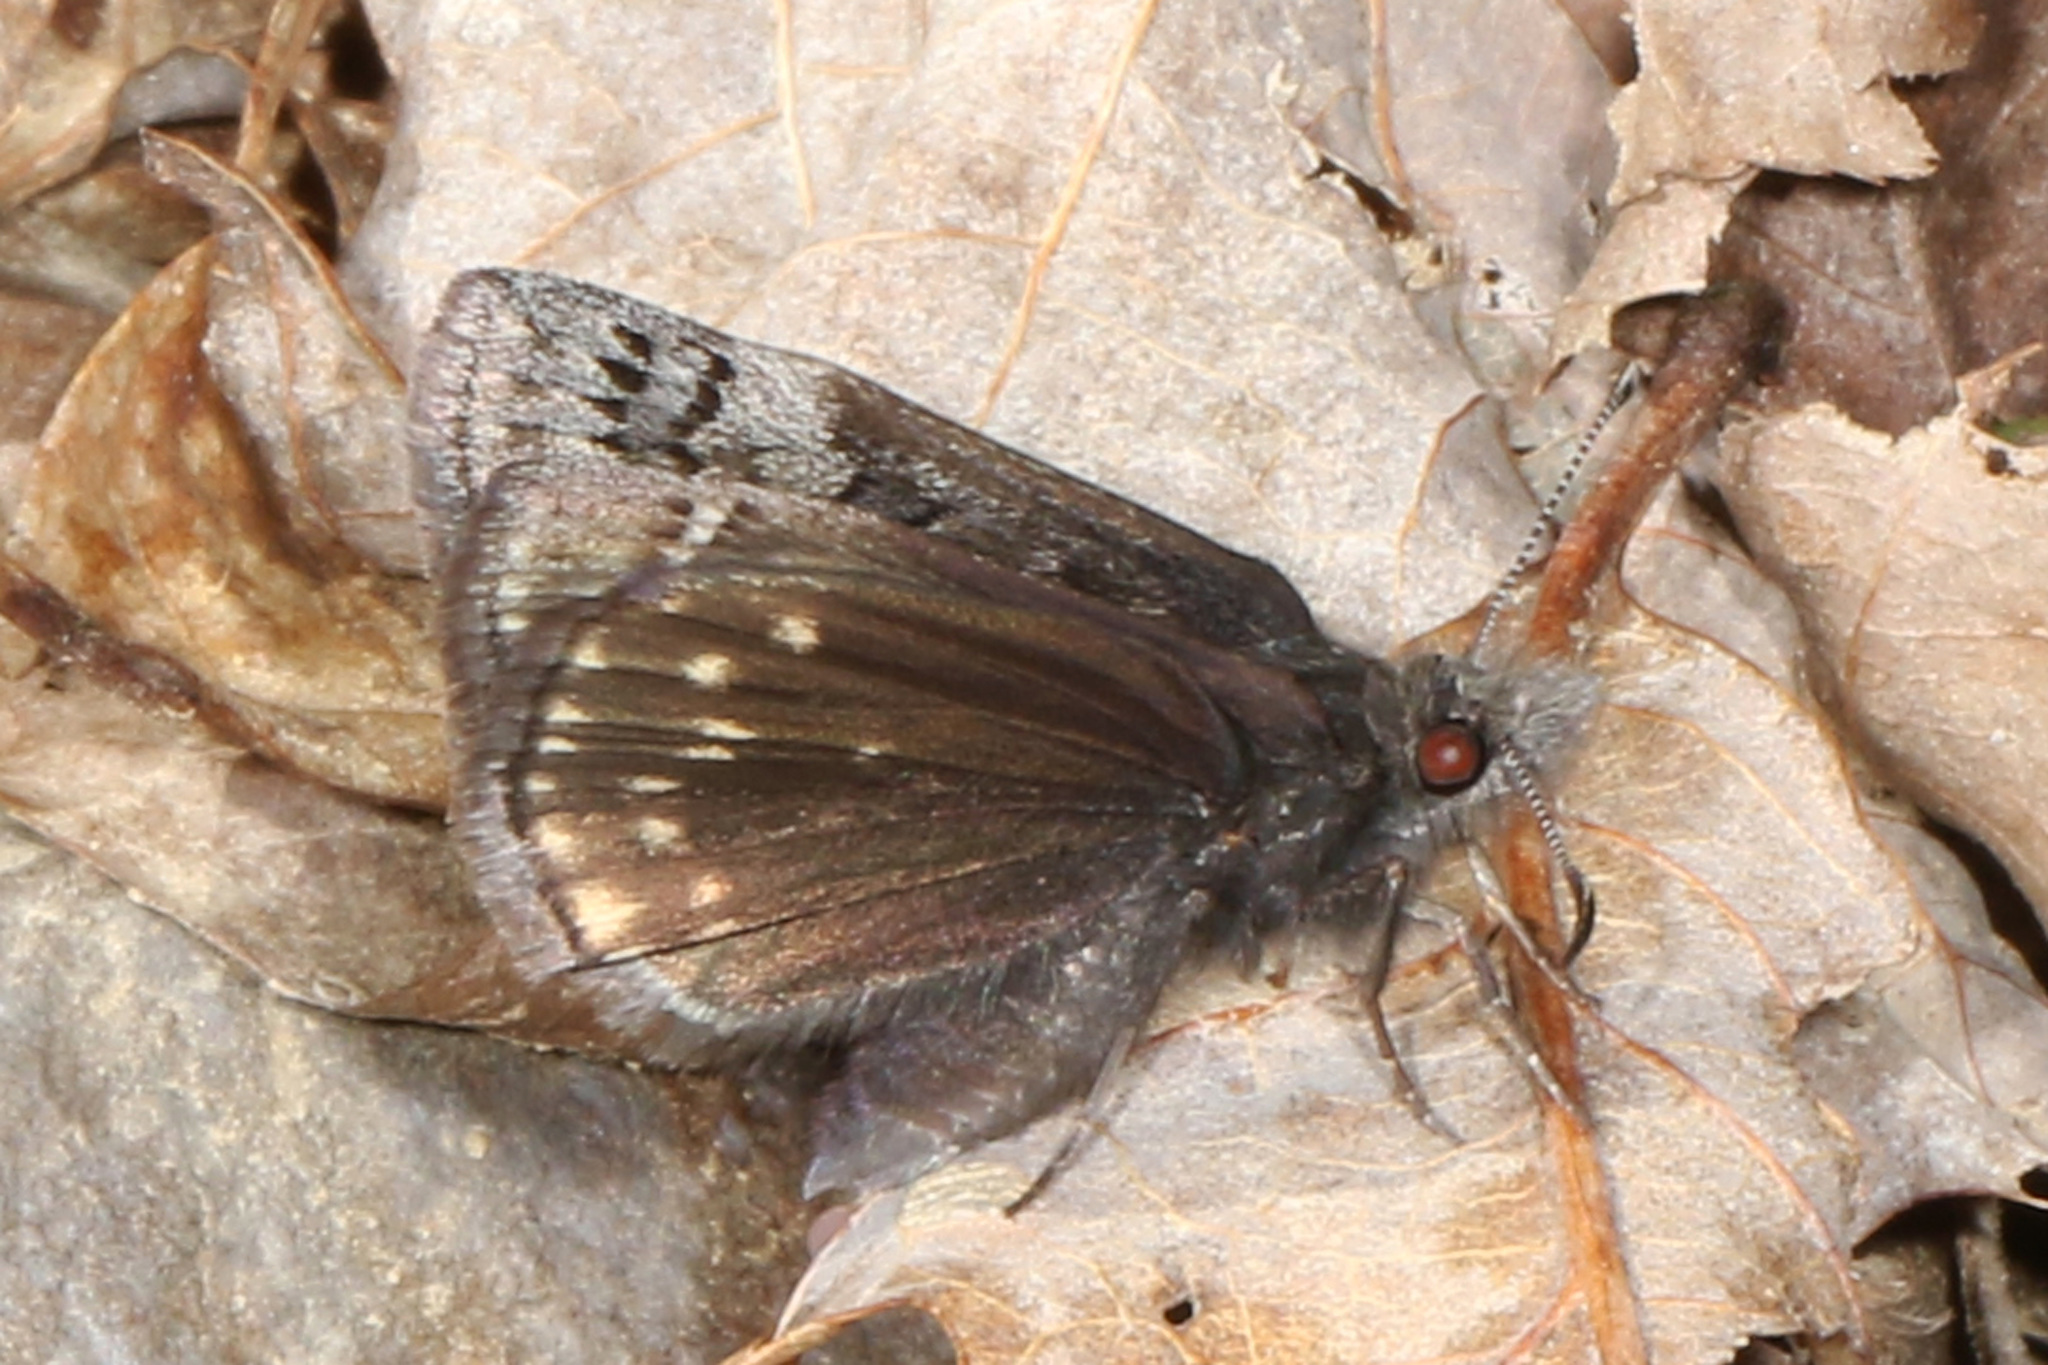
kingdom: Animalia
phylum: Arthropoda
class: Insecta
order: Lepidoptera
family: Hesperiidae
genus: Erynnis
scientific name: Erynnis brizo
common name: Sleepy duskywing
